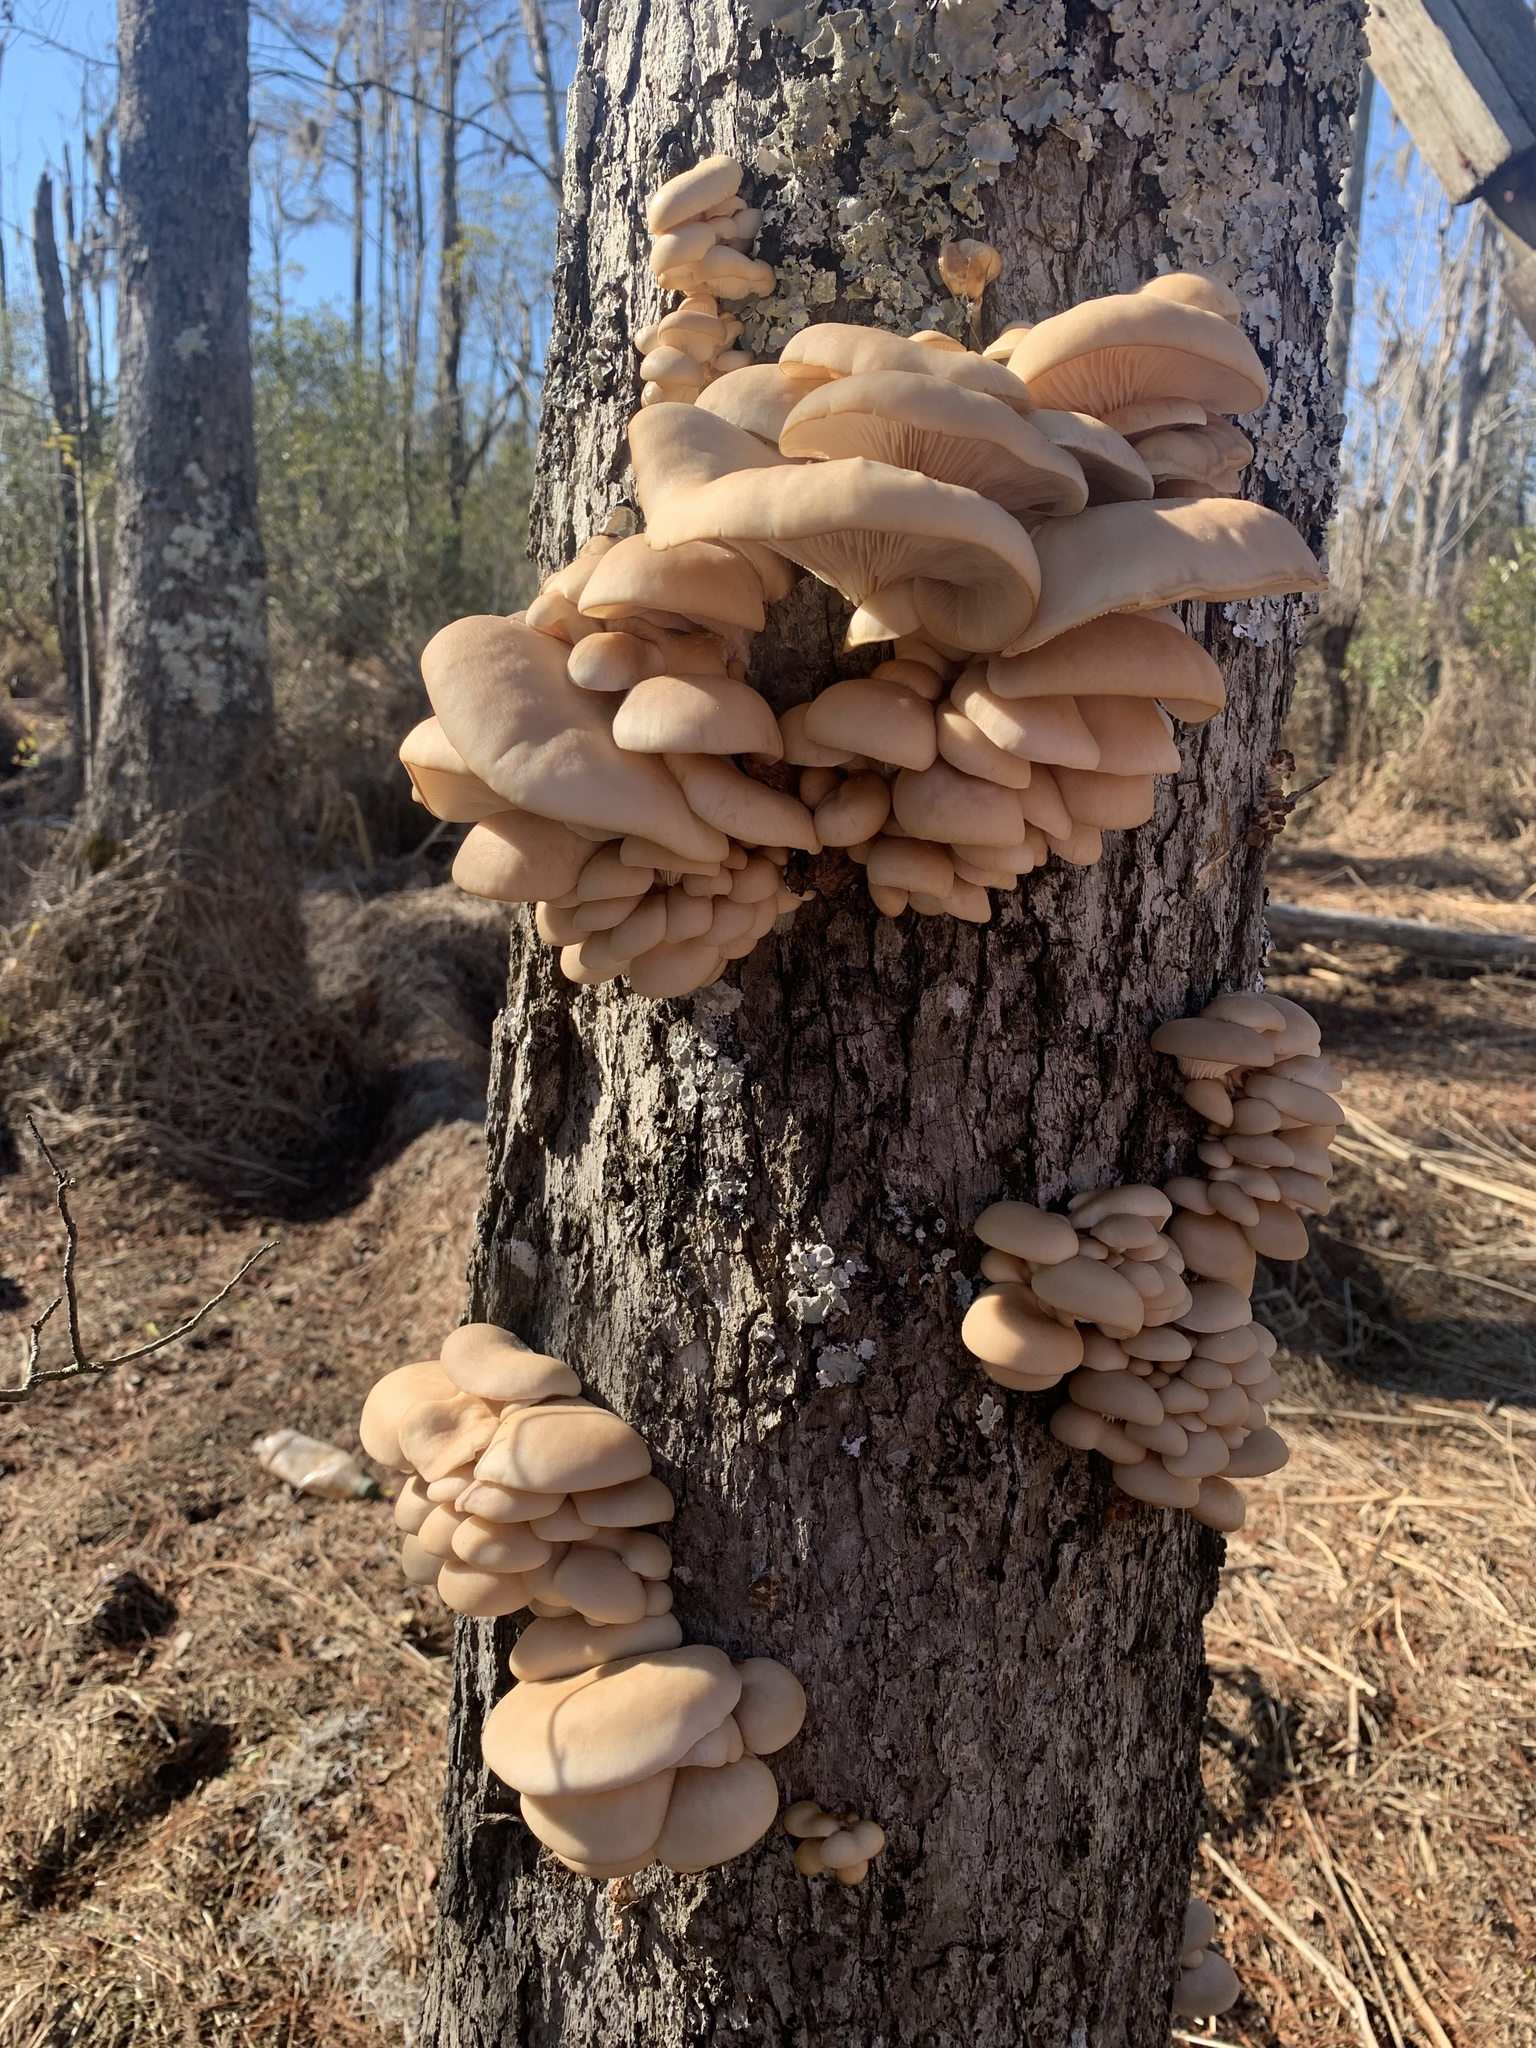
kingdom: Fungi
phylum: Basidiomycota
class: Agaricomycetes
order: Agaricales
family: Pleurotaceae
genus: Pleurotus
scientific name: Pleurotus ostreatus
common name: Oyster mushroom
